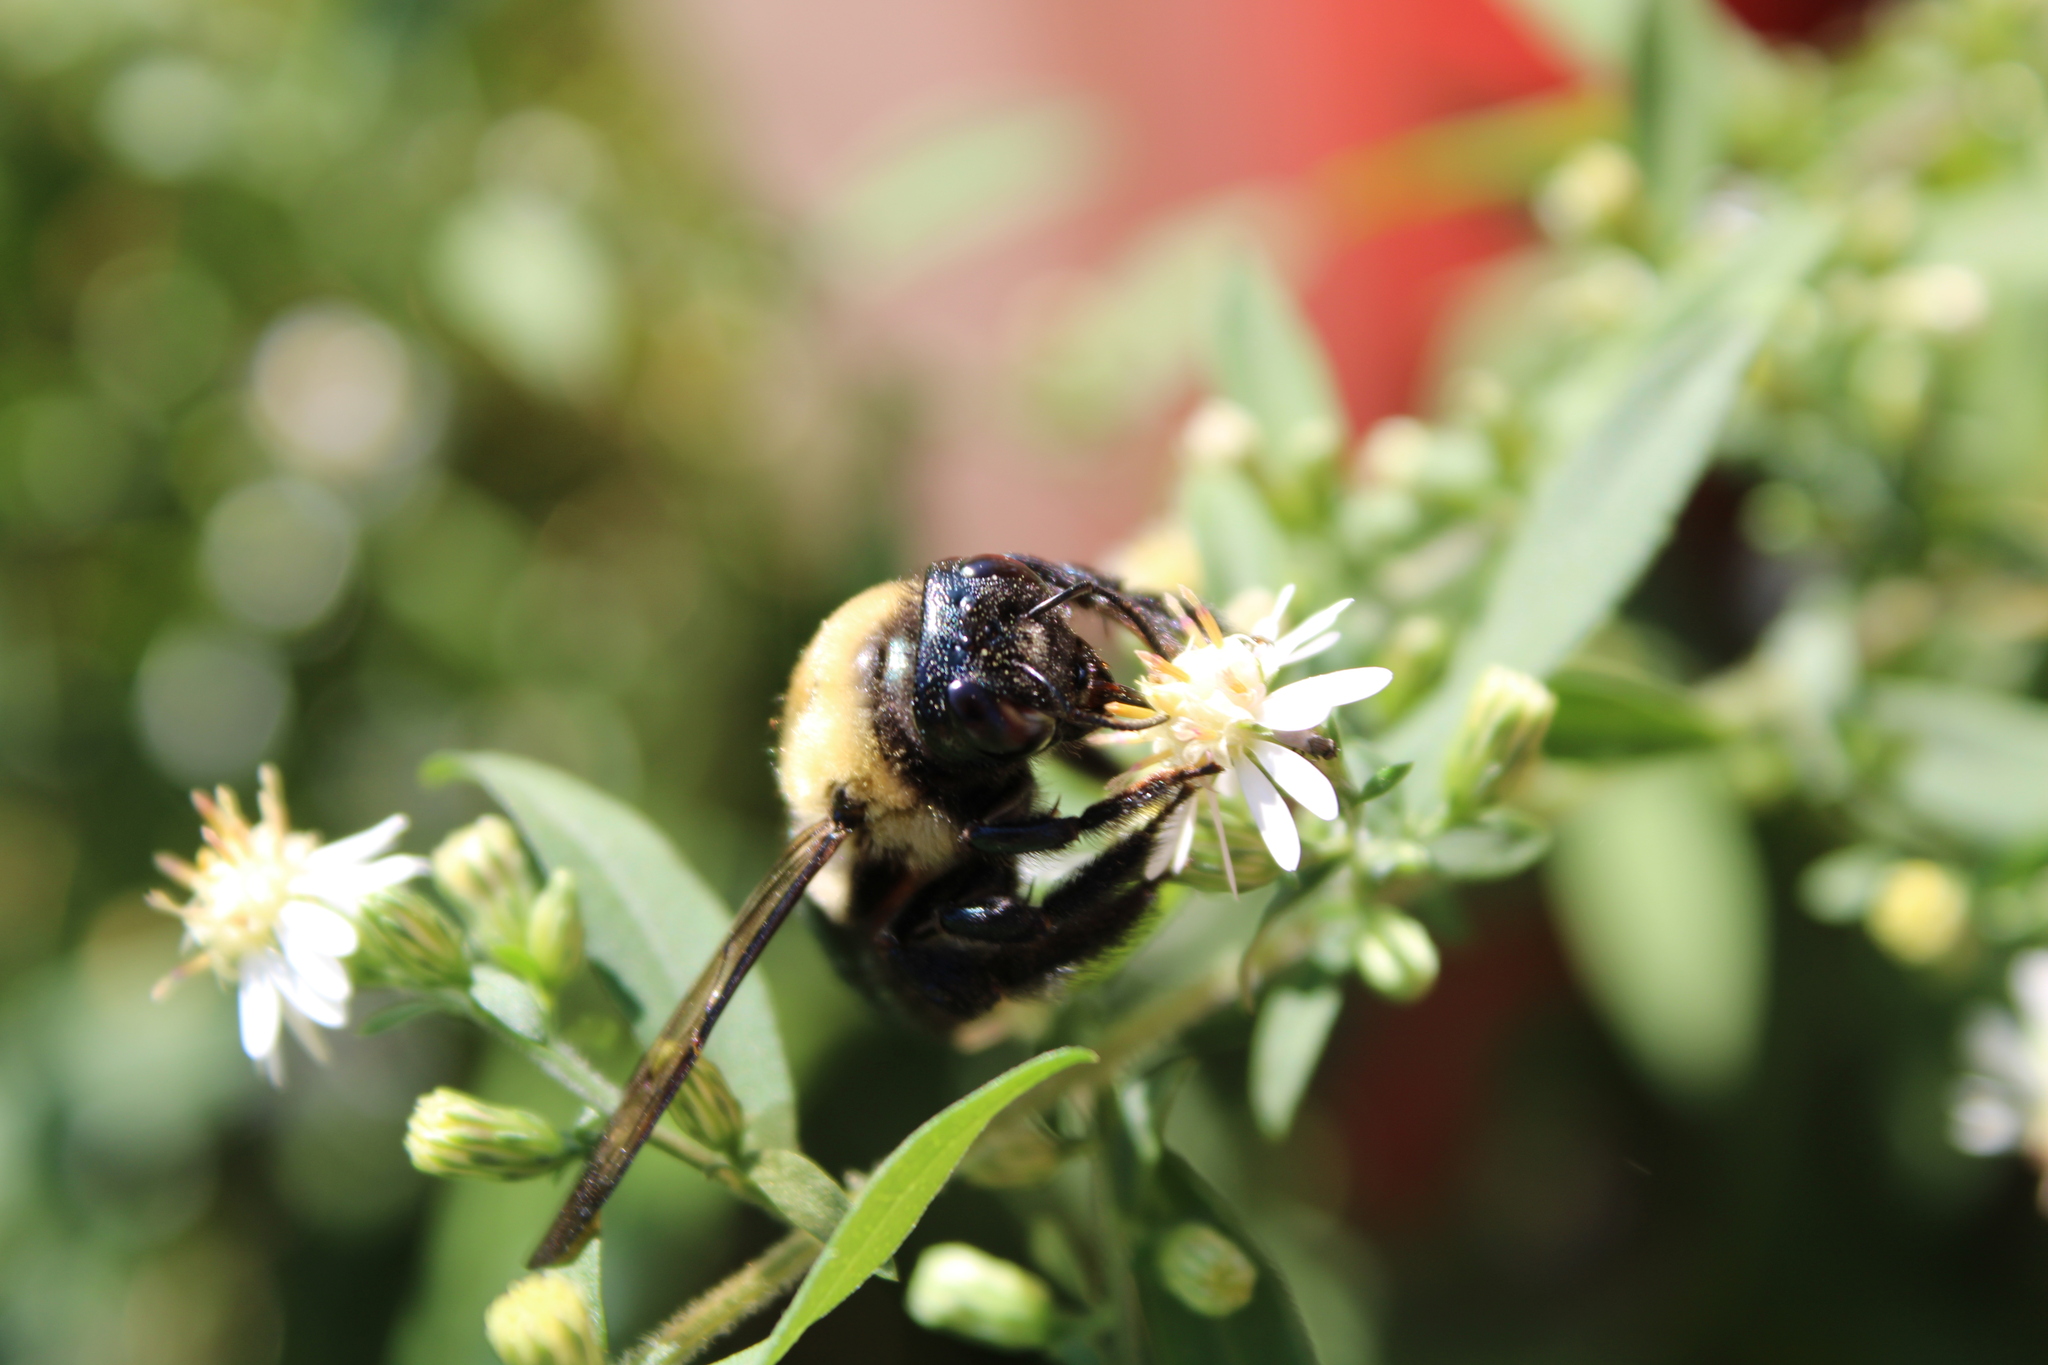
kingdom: Animalia
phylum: Arthropoda
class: Insecta
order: Hymenoptera
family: Apidae
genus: Xylocopa
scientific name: Xylocopa virginica
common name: Carpenter bee
